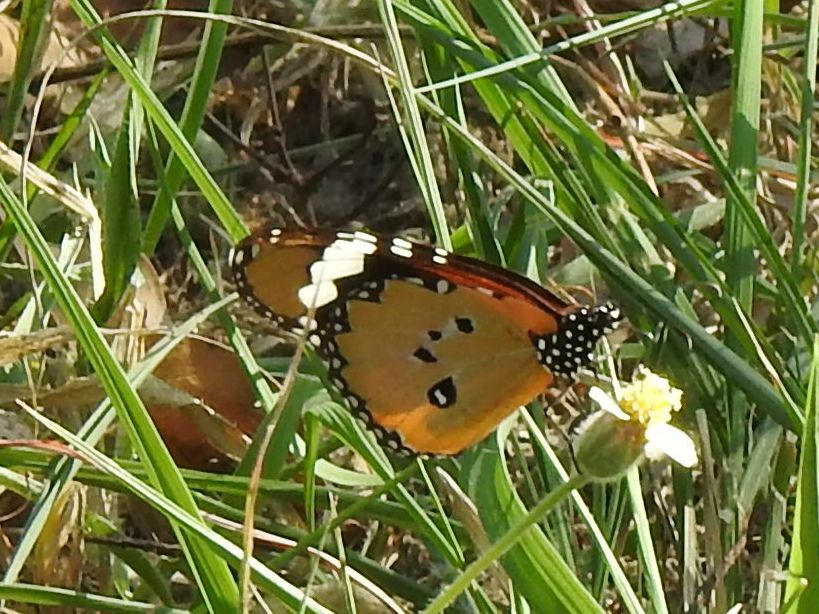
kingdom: Animalia
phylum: Arthropoda
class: Insecta
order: Lepidoptera
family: Nymphalidae
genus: Danaus
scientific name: Danaus chrysippus
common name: Plain tiger
